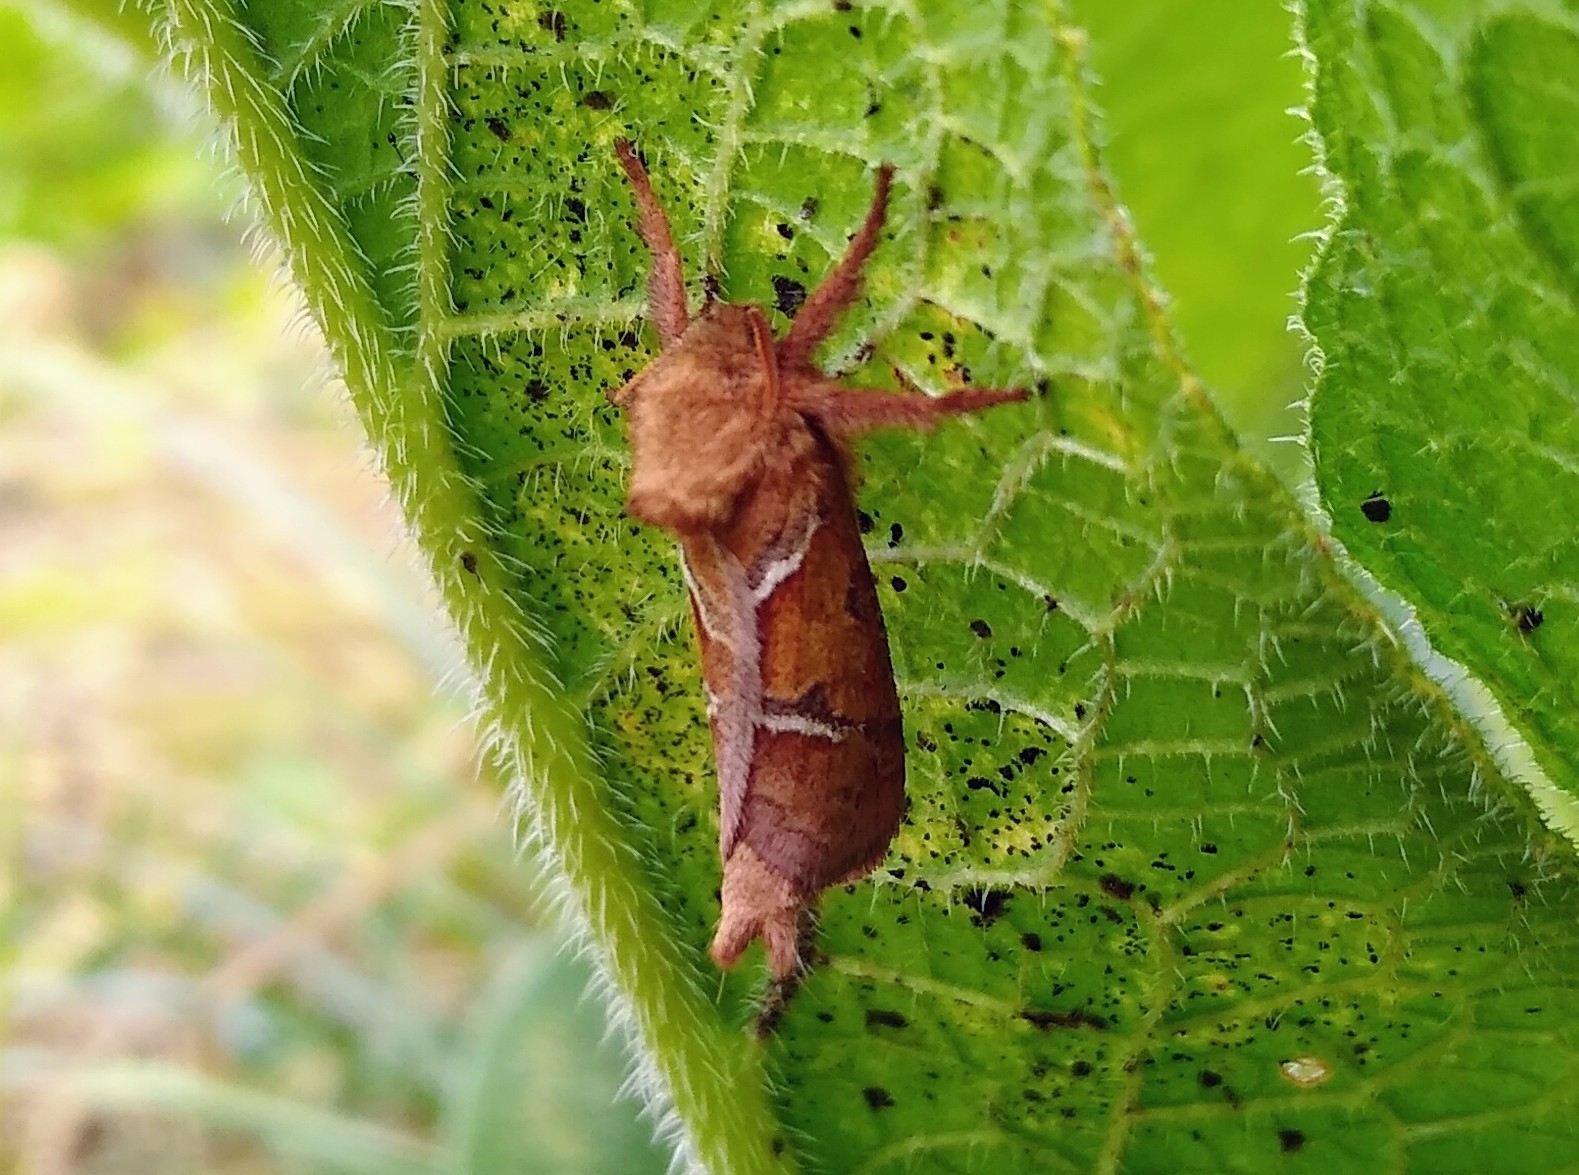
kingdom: Animalia
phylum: Arthropoda
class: Insecta
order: Lepidoptera
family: Hepialidae
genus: Triodia
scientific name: Triodia sylvina
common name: Orange swift
